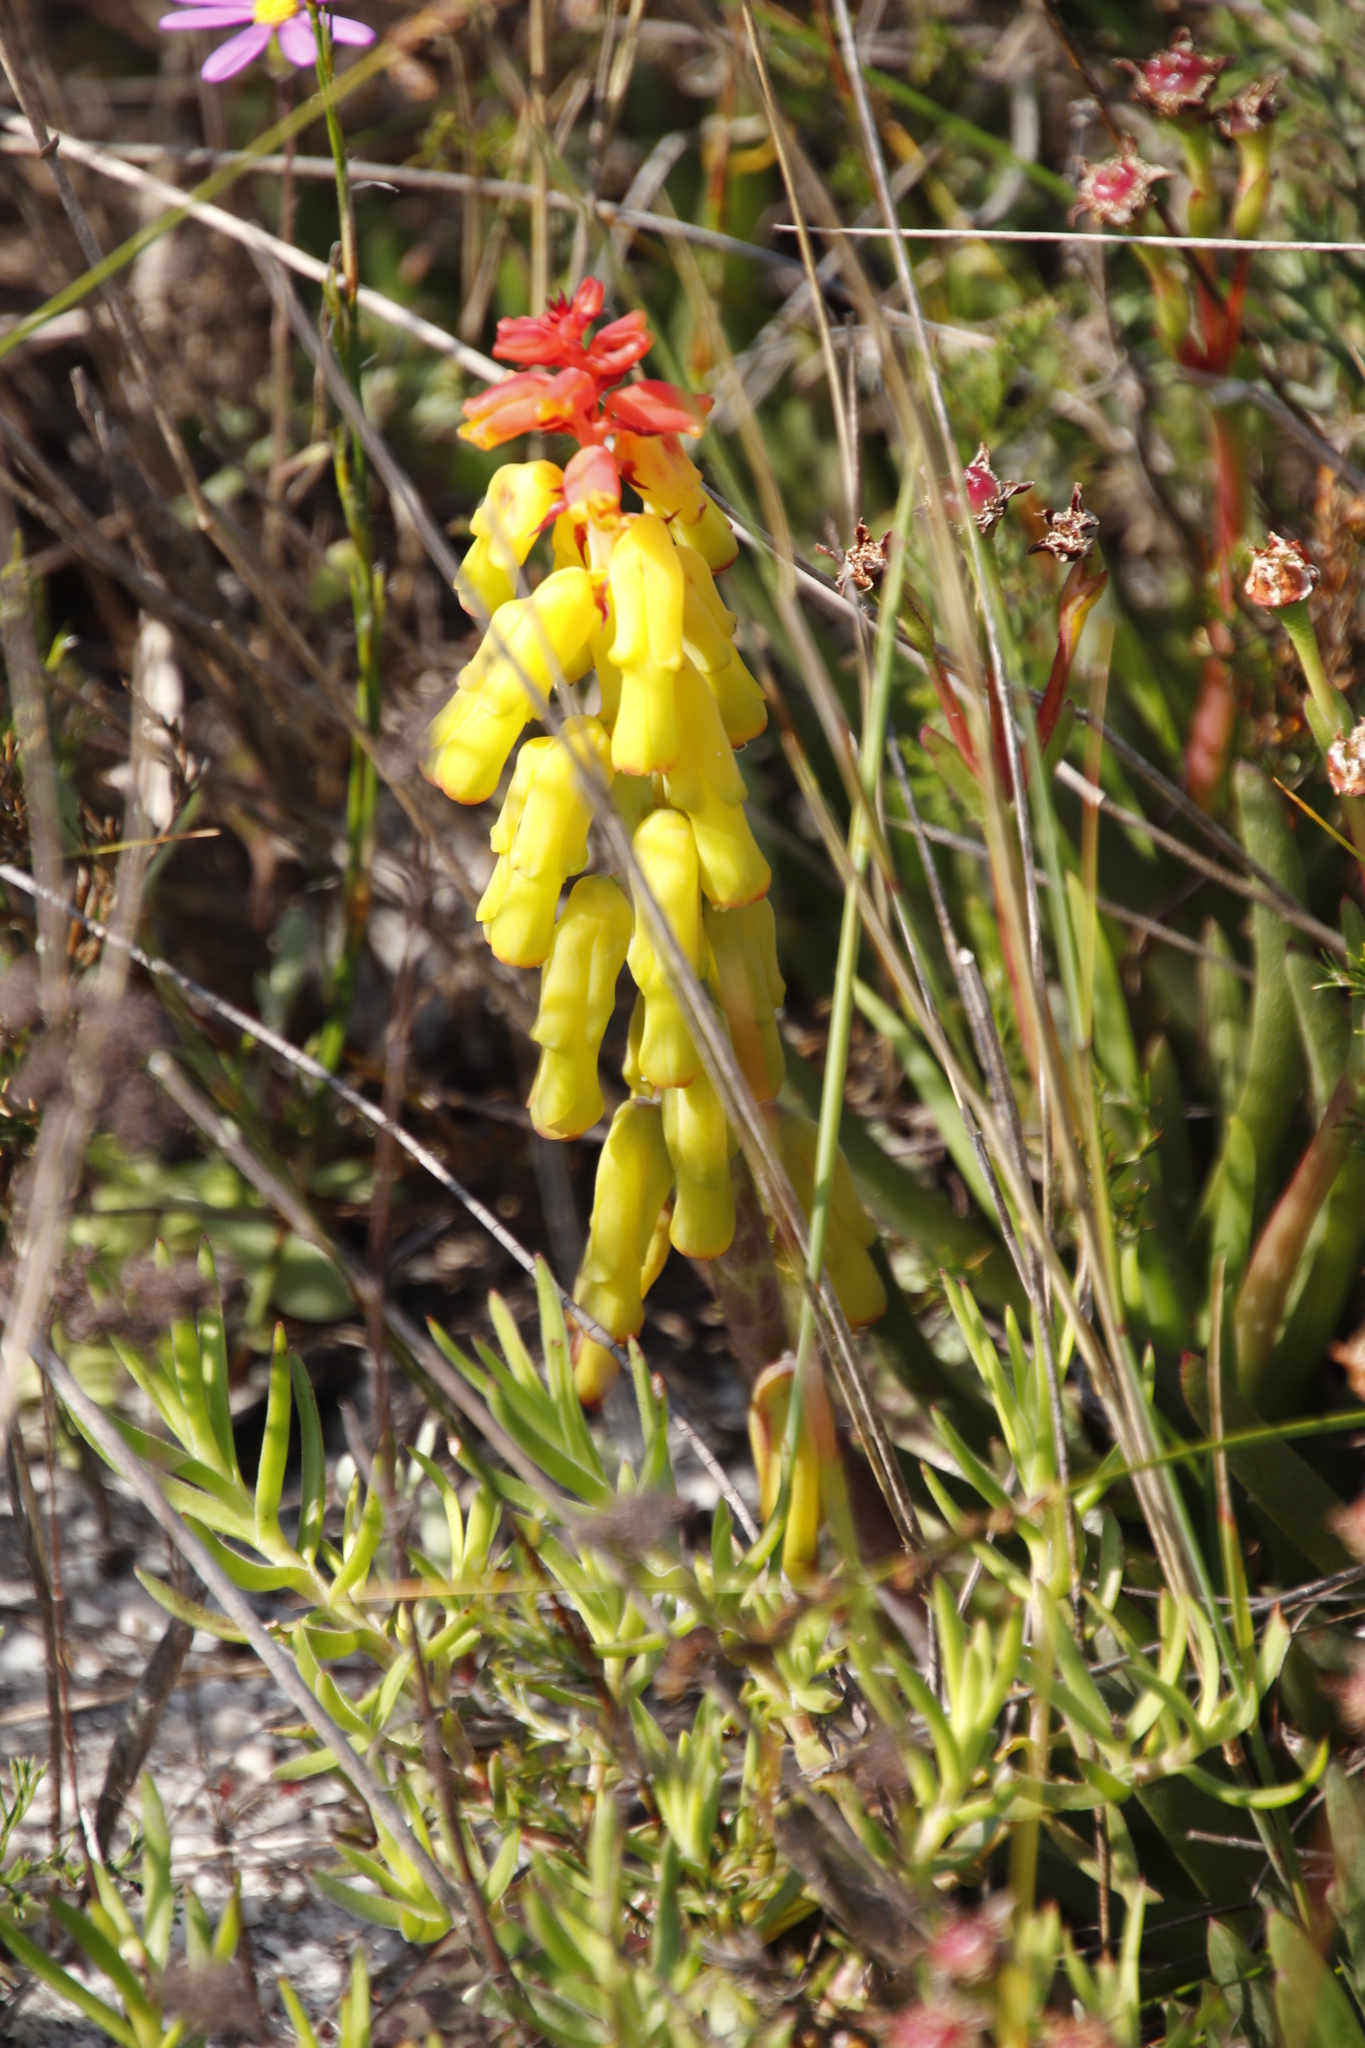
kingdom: Plantae
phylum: Tracheophyta
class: Liliopsida
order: Asparagales
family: Asparagaceae
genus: Lachenalia
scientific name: Lachenalia luteola
